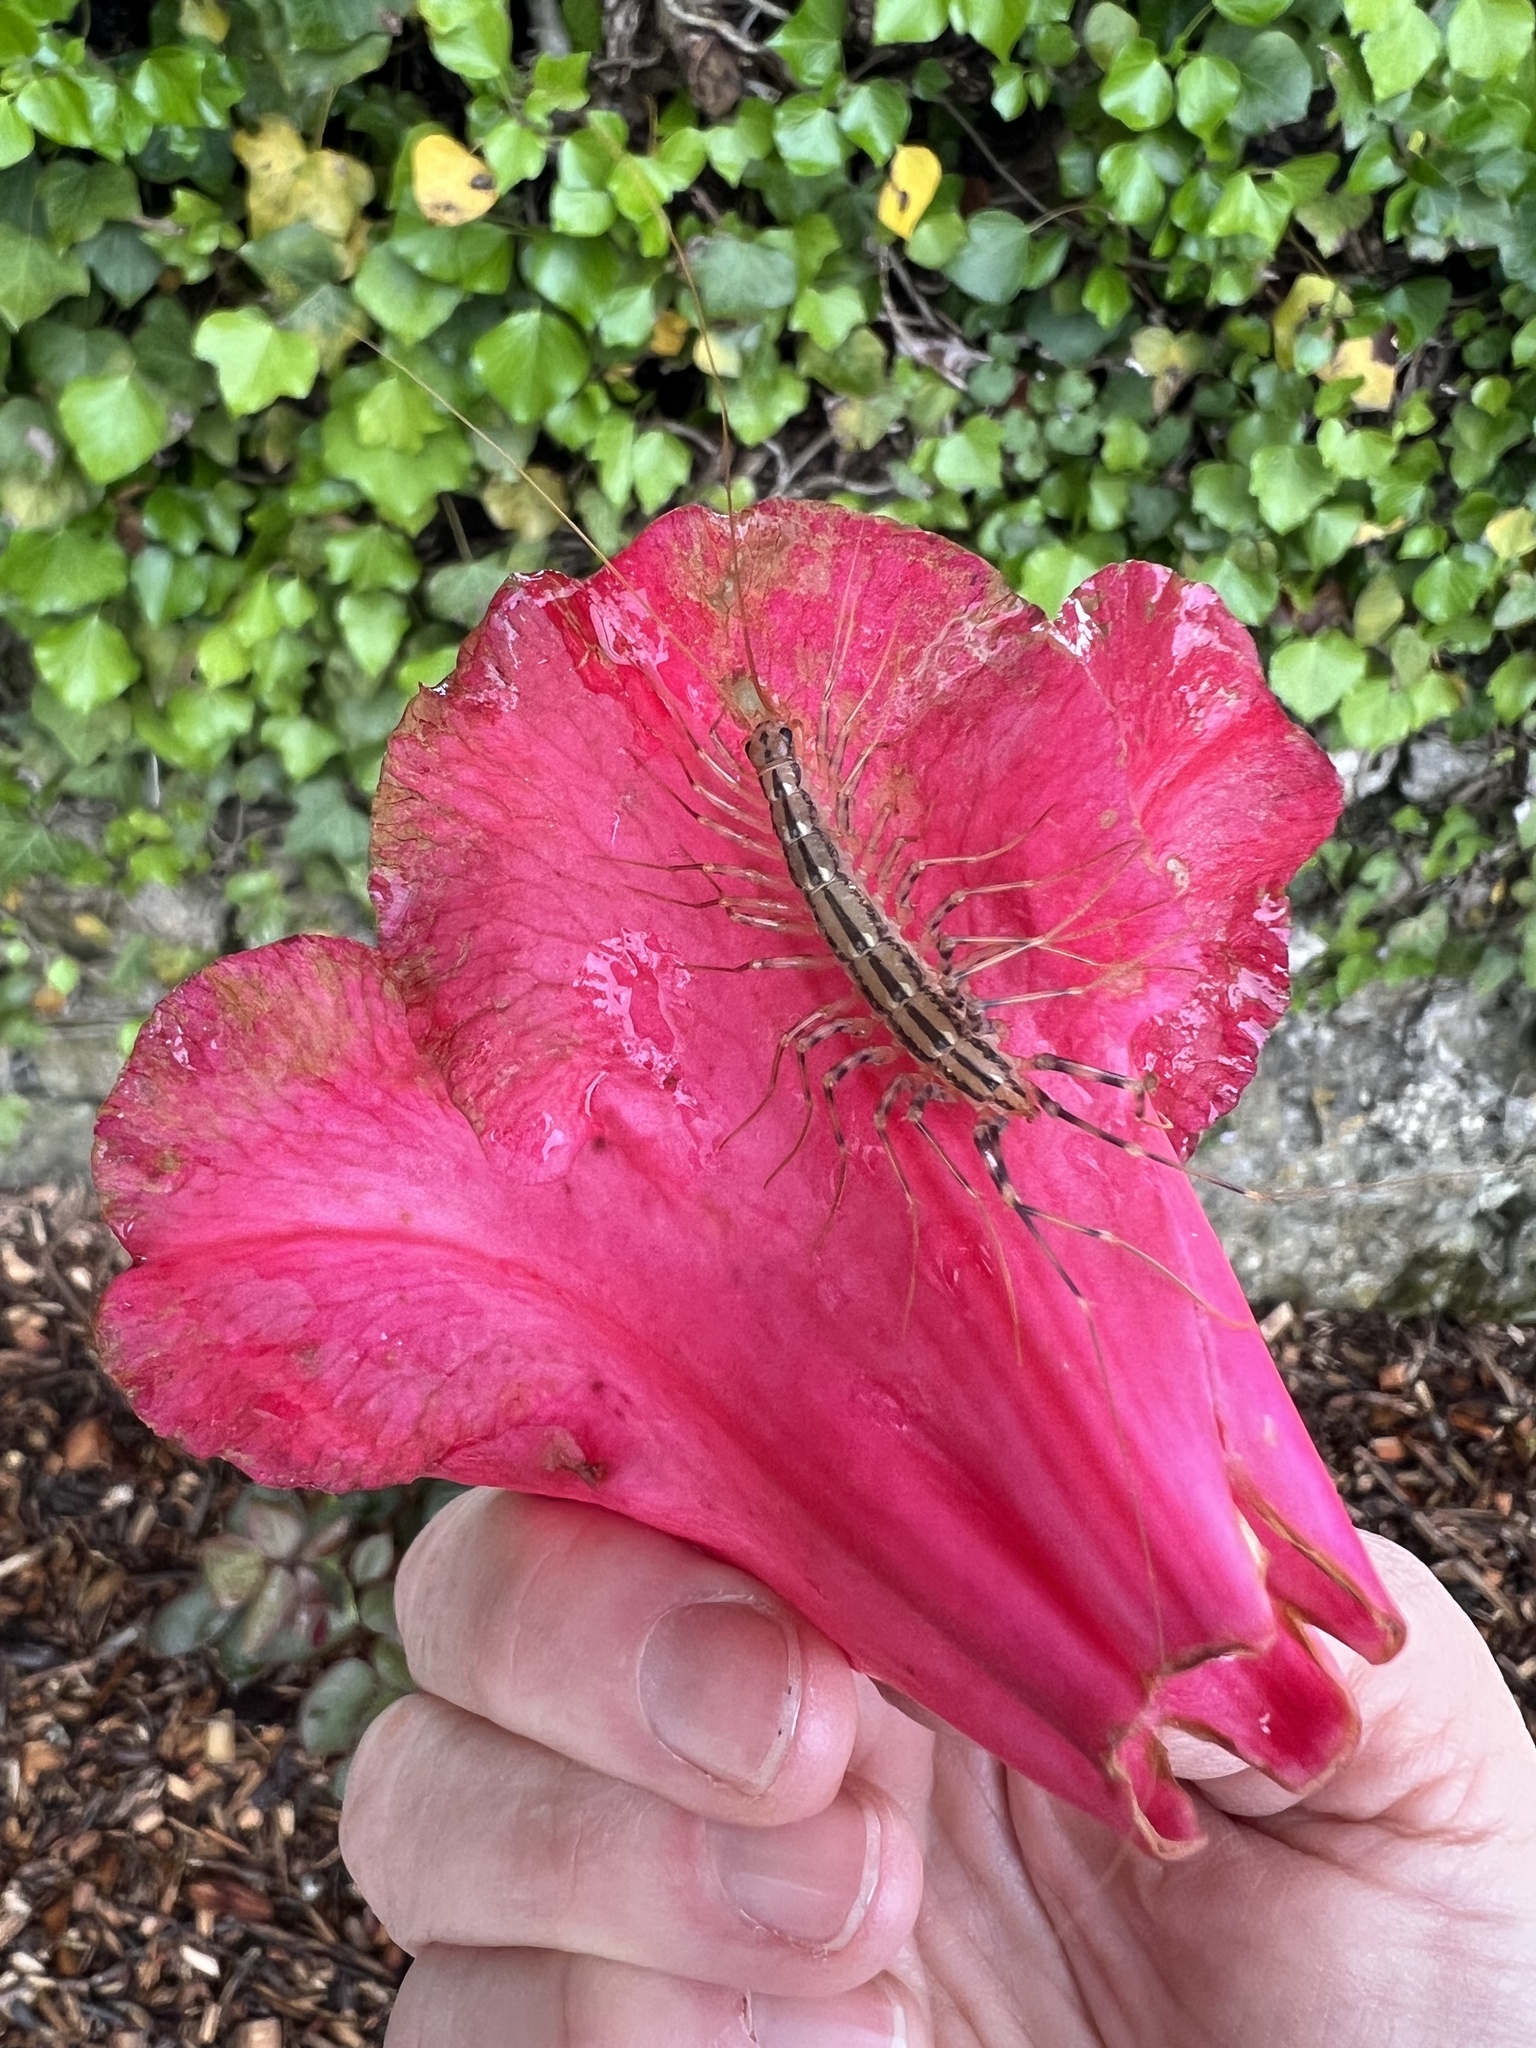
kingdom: Animalia
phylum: Arthropoda
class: Chilopoda
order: Scutigeromorpha
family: Scutigeridae
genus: Scutigera
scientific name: Scutigera coleoptrata
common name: House centipede
